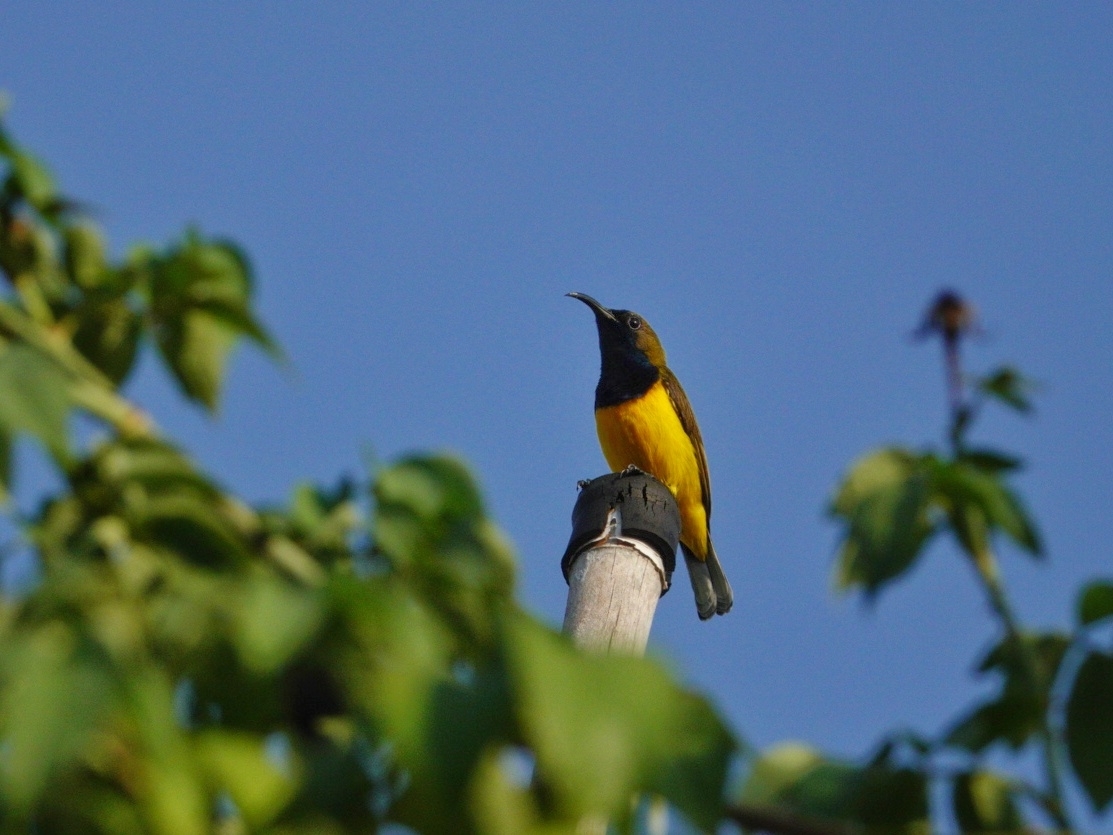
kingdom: Animalia
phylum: Chordata
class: Aves
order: Passeriformes
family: Nectariniidae
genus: Cinnyris
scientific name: Cinnyris
